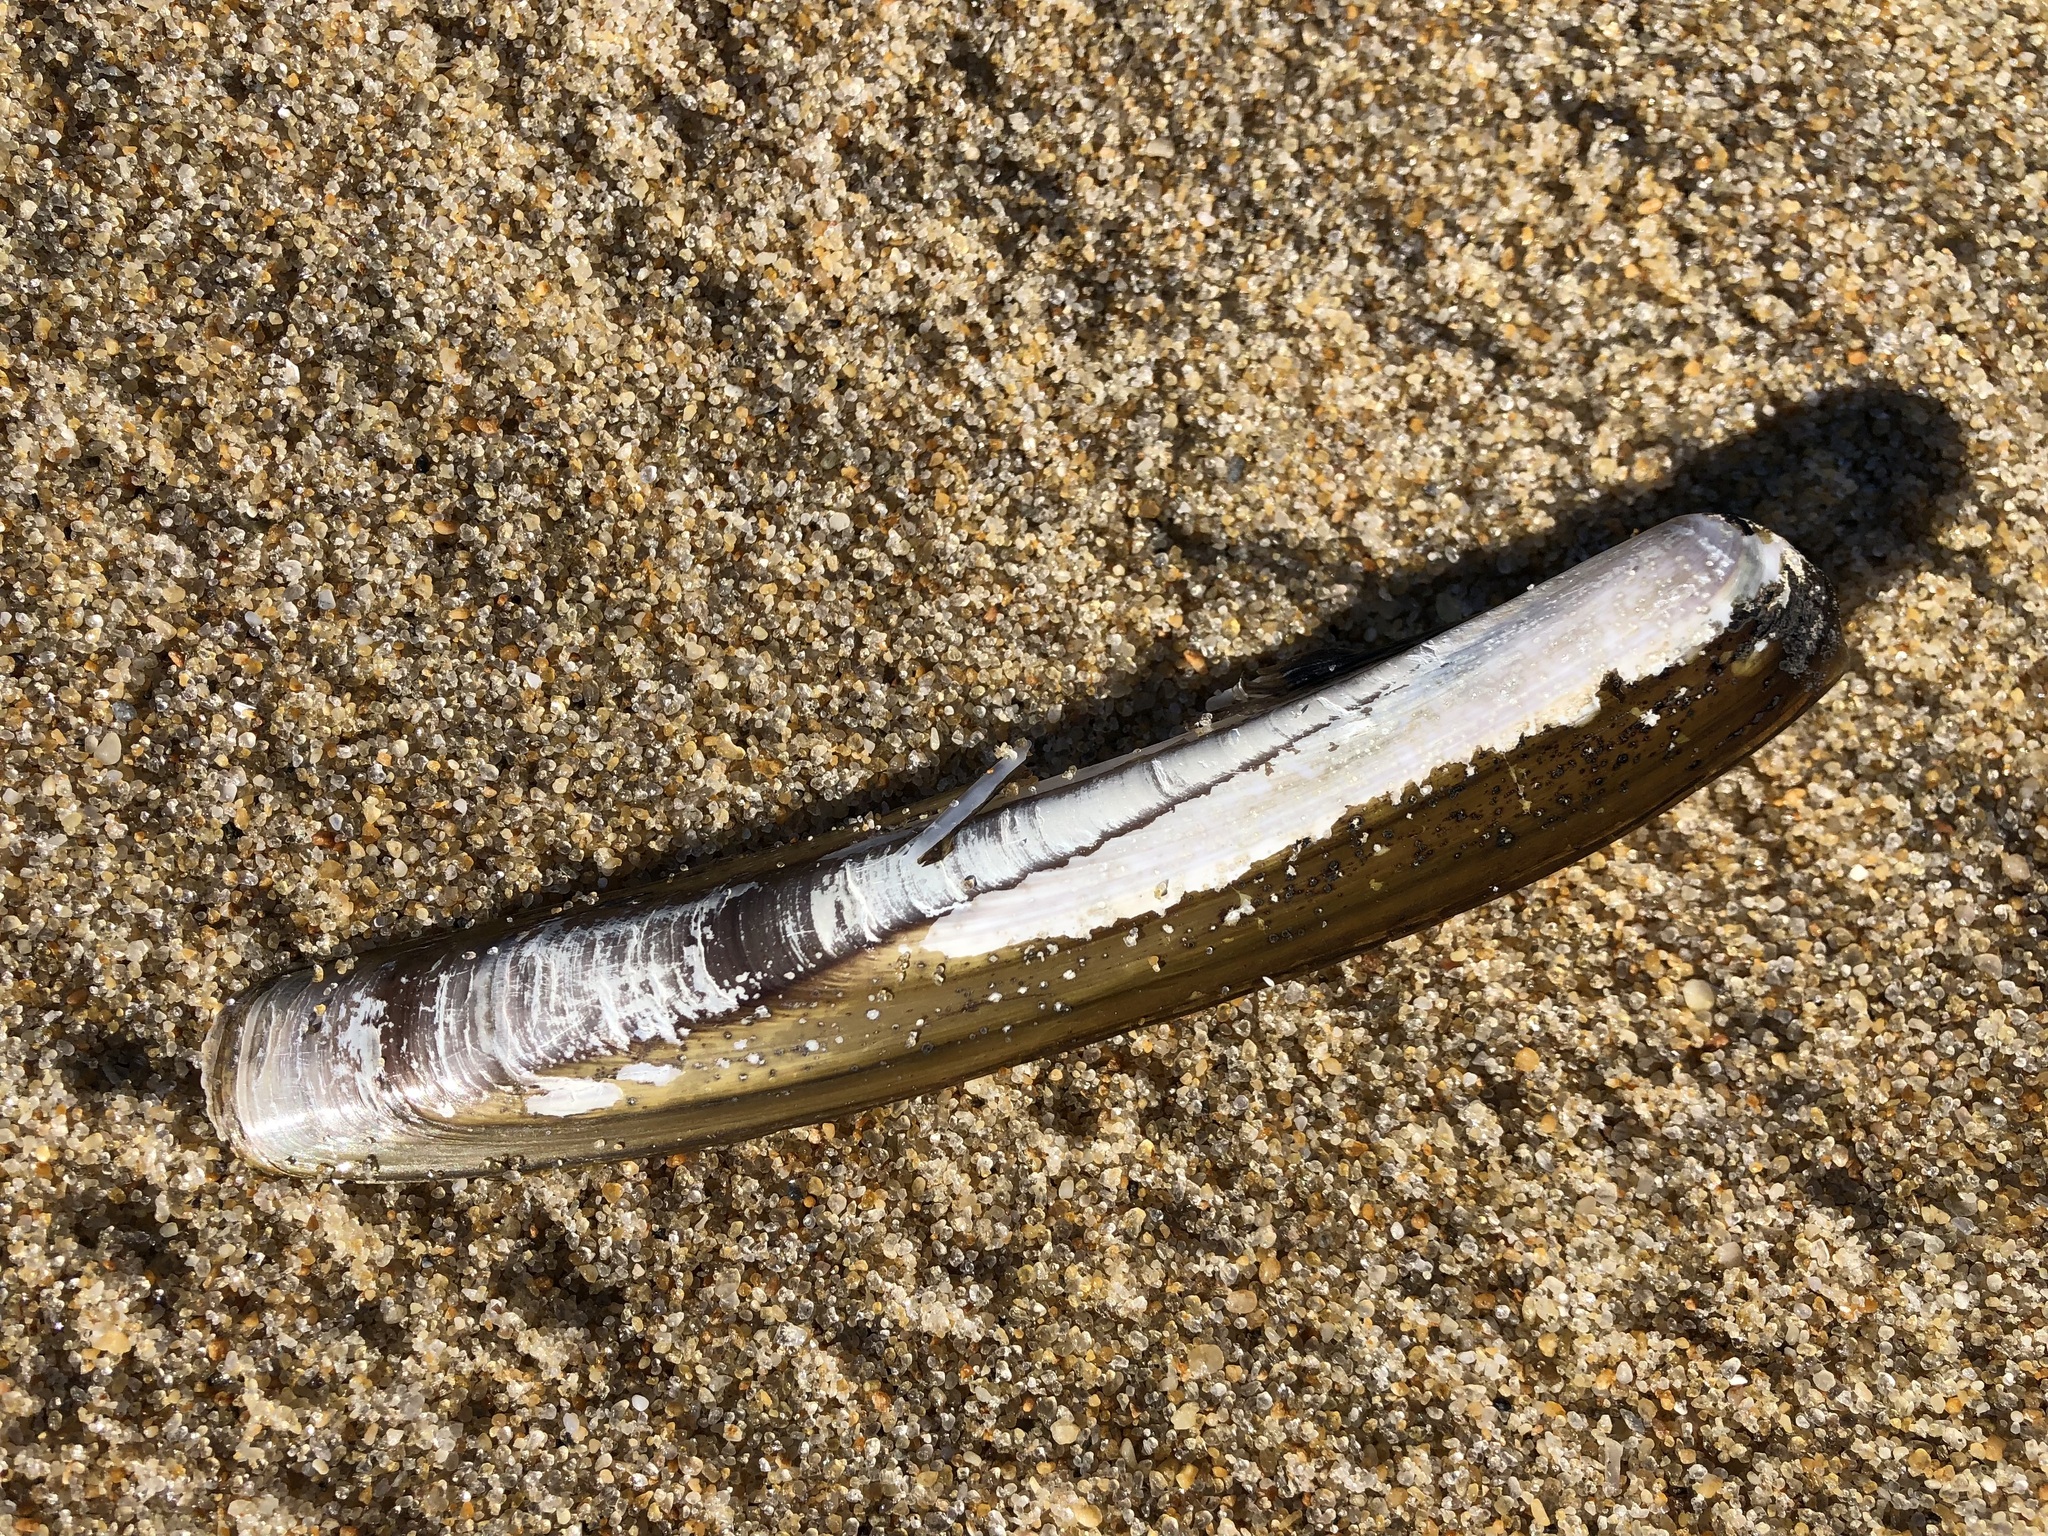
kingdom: Animalia
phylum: Mollusca
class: Bivalvia
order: Adapedonta
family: Pharidae
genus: Ensis
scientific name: Ensis leei
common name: American jack knife clam
